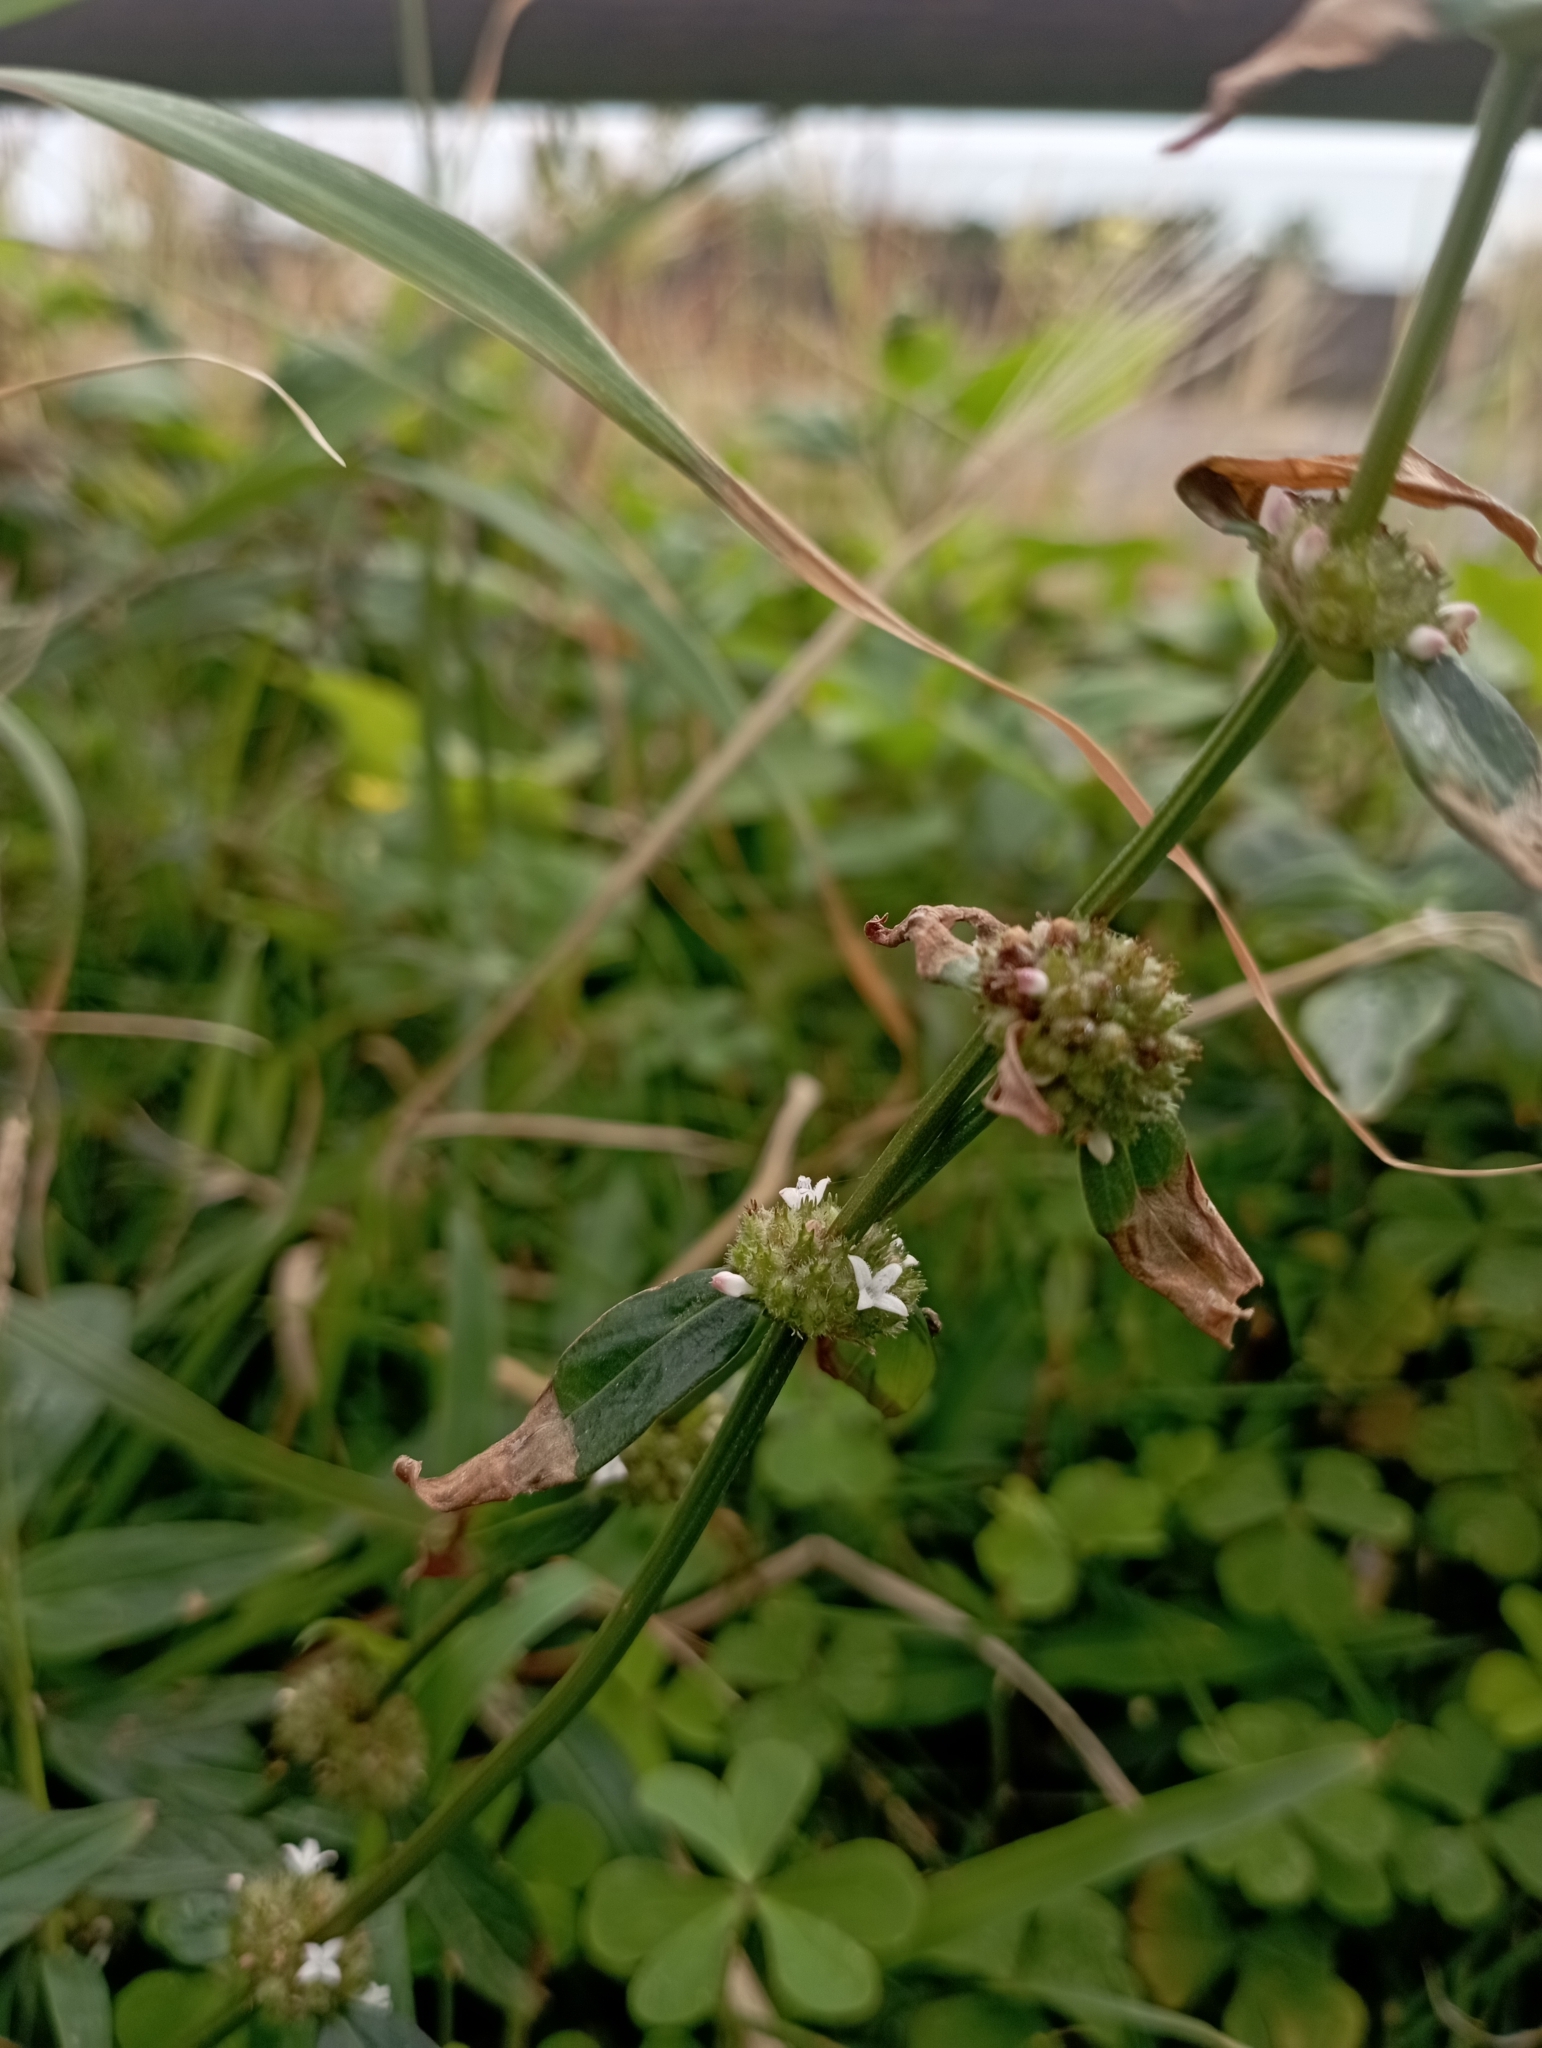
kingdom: Plantae
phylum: Tracheophyta
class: Magnoliopsida
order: Gentianales
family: Rubiaceae
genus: Spermacoce
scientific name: Spermacoce remota
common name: Woodland false buttonweed
